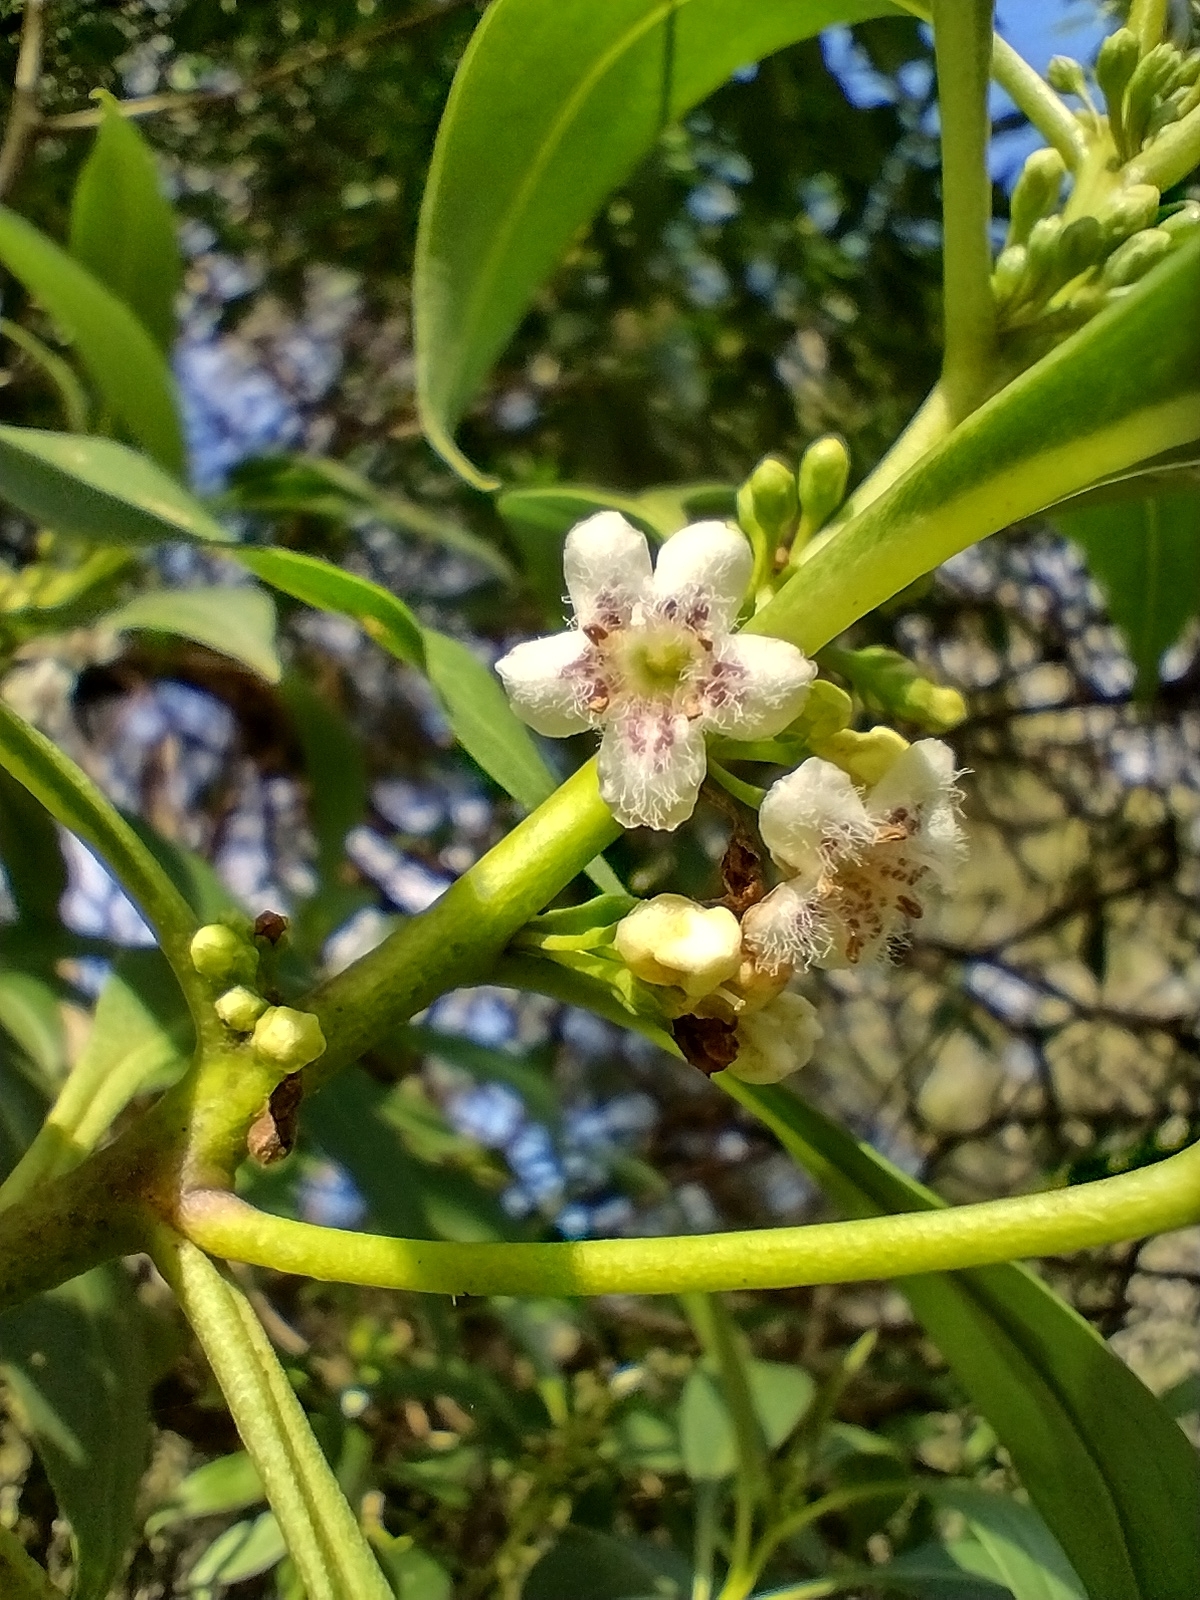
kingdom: Plantae
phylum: Tracheophyta
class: Magnoliopsida
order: Lamiales
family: Scrophulariaceae
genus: Myoporum
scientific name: Myoporum acuminatum
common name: Pointed boobialla
